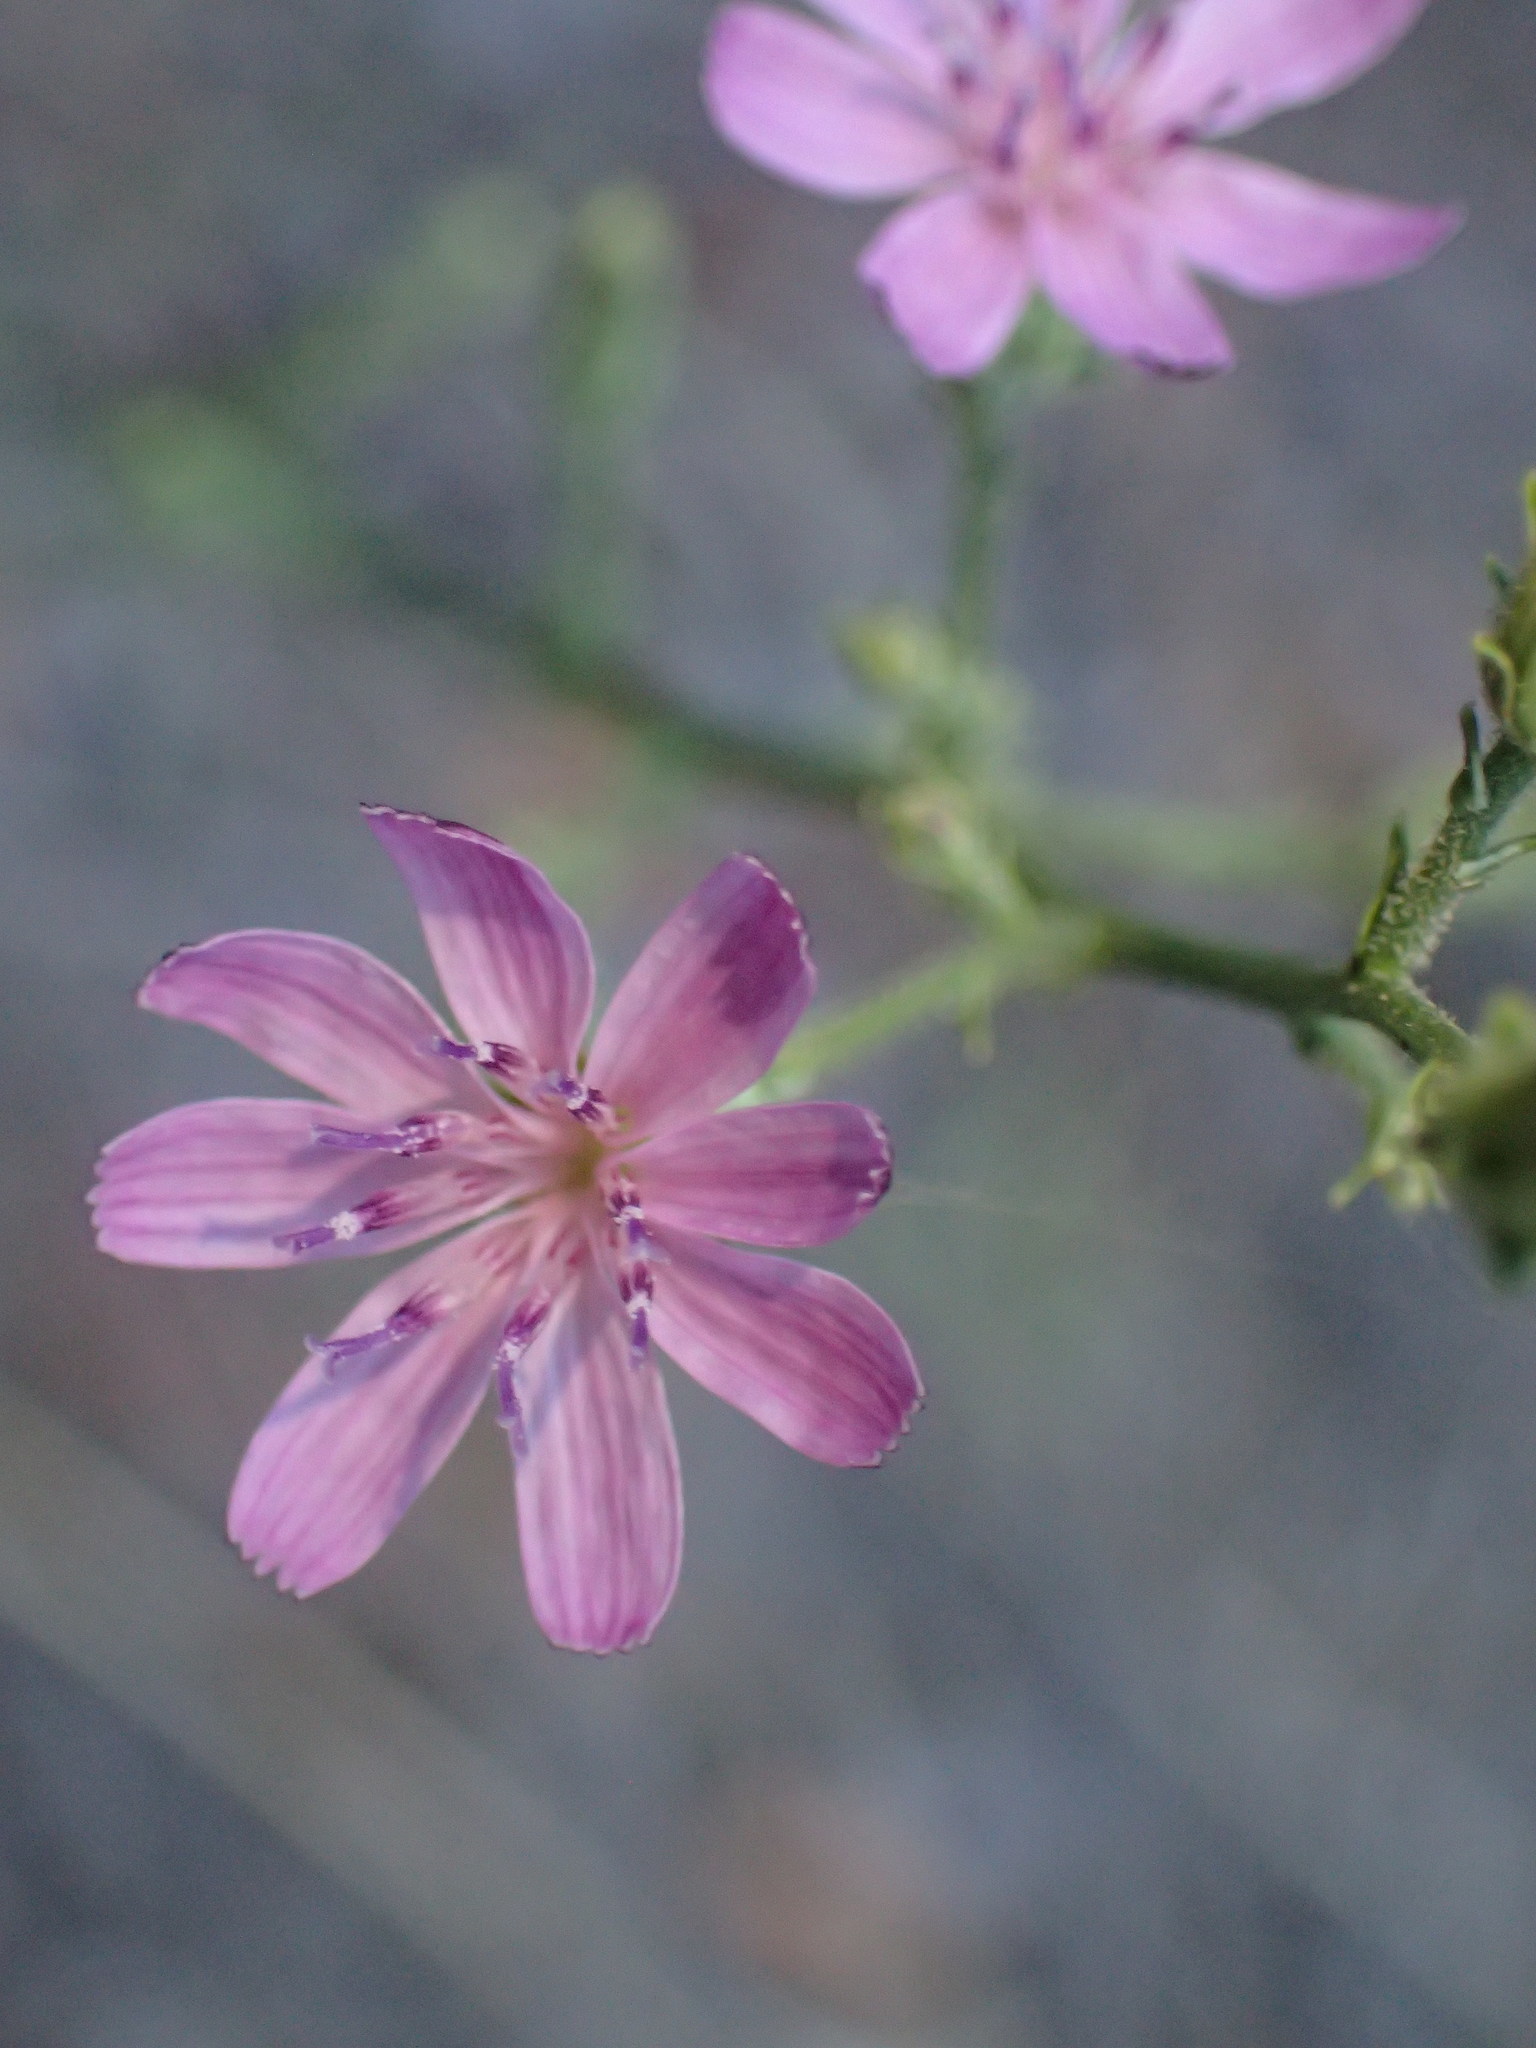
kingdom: Plantae
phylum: Tracheophyta
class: Magnoliopsida
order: Asterales
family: Asteraceae
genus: Stephanomeria
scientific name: Stephanomeria exigua
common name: Small wirelettuce
